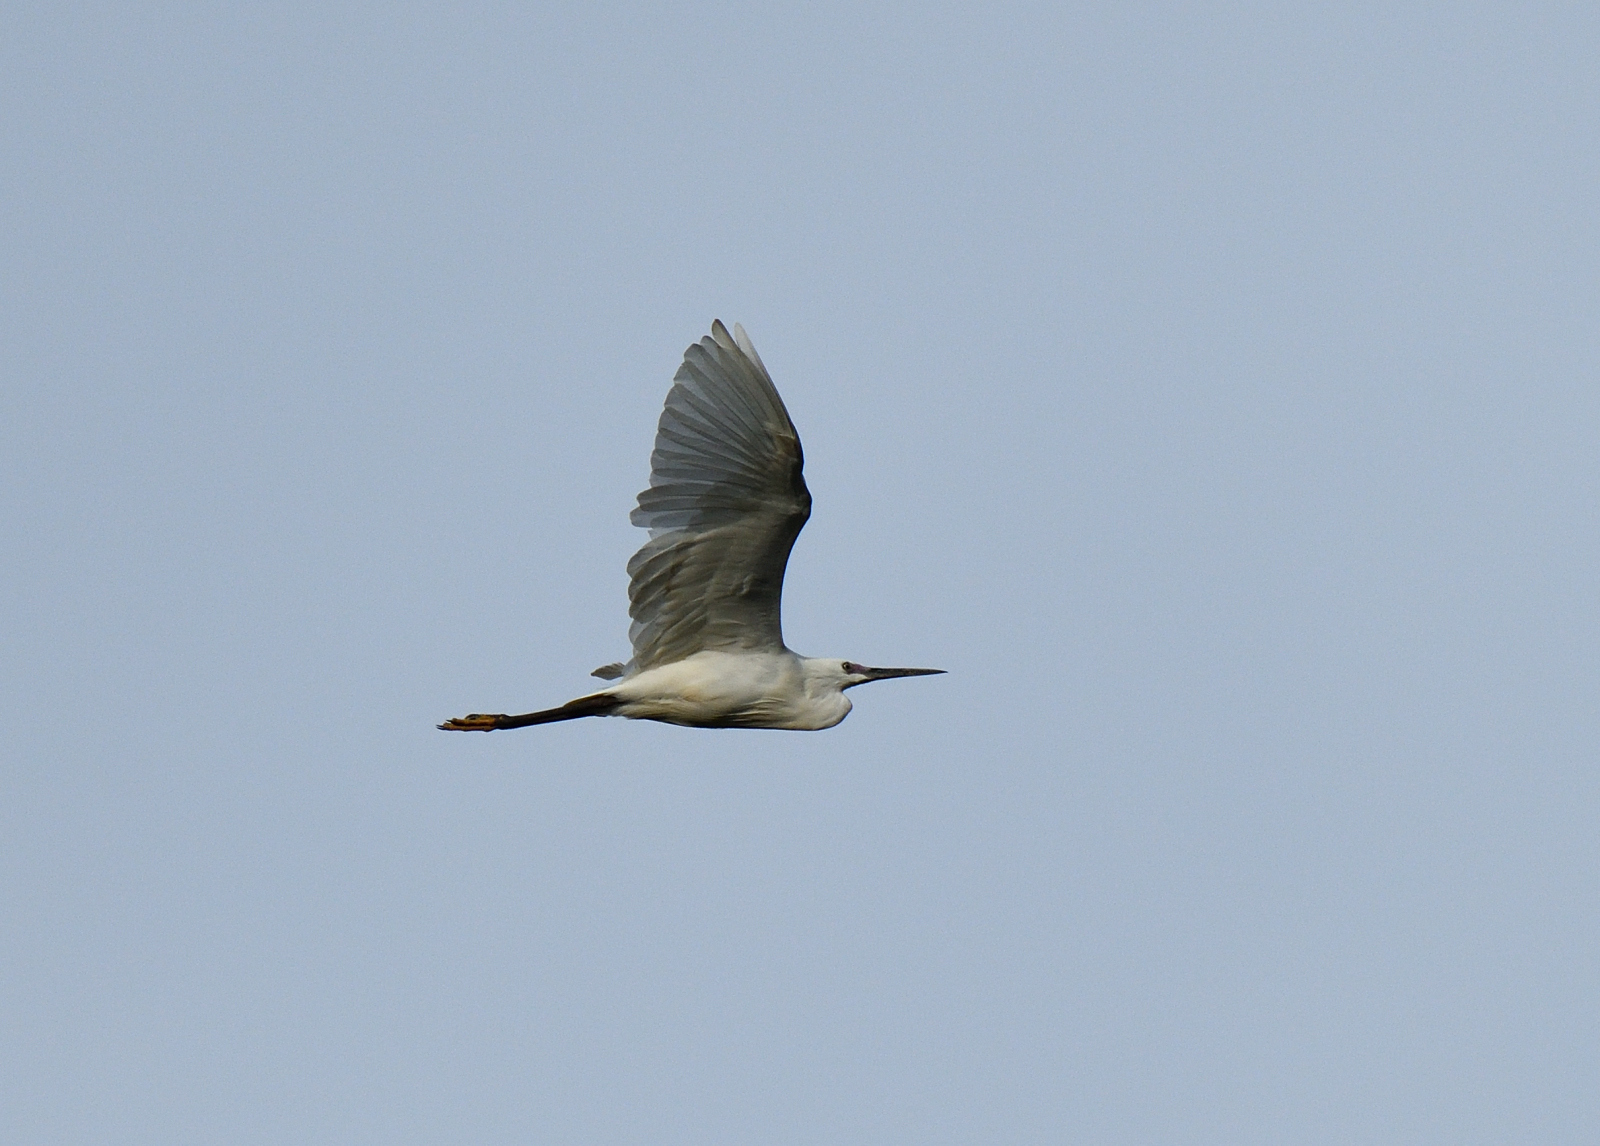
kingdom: Animalia
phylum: Chordata
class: Aves
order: Pelecaniformes
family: Ardeidae
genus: Egretta
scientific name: Egretta garzetta
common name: Little egret
